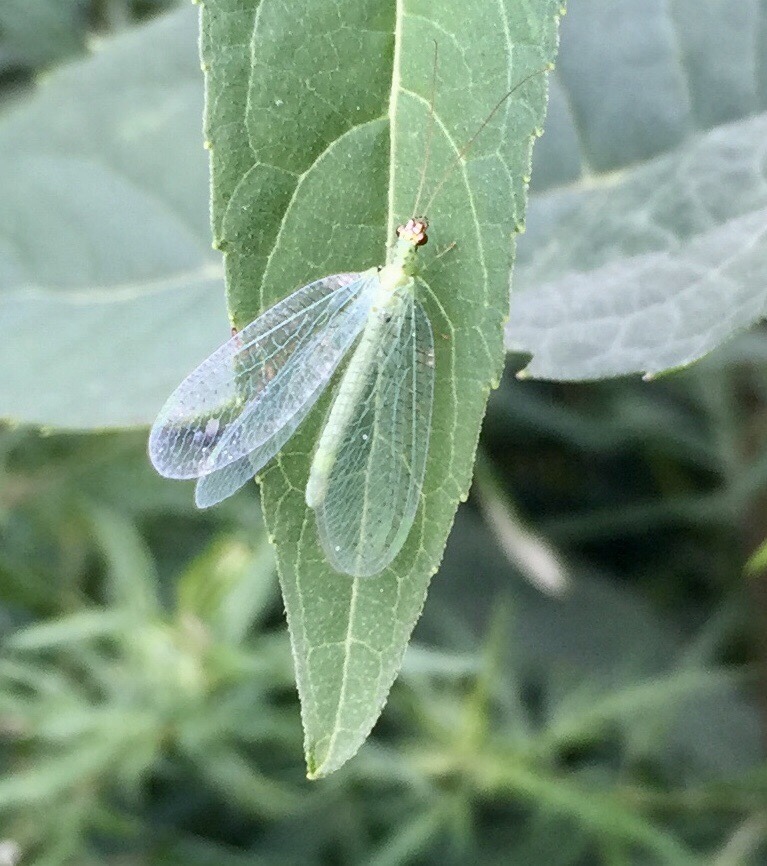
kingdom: Animalia
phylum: Arthropoda
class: Insecta
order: Neuroptera
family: Chrysopidae
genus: Chrysopa
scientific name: Chrysopa oculata
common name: Golden-eyed lacewing
